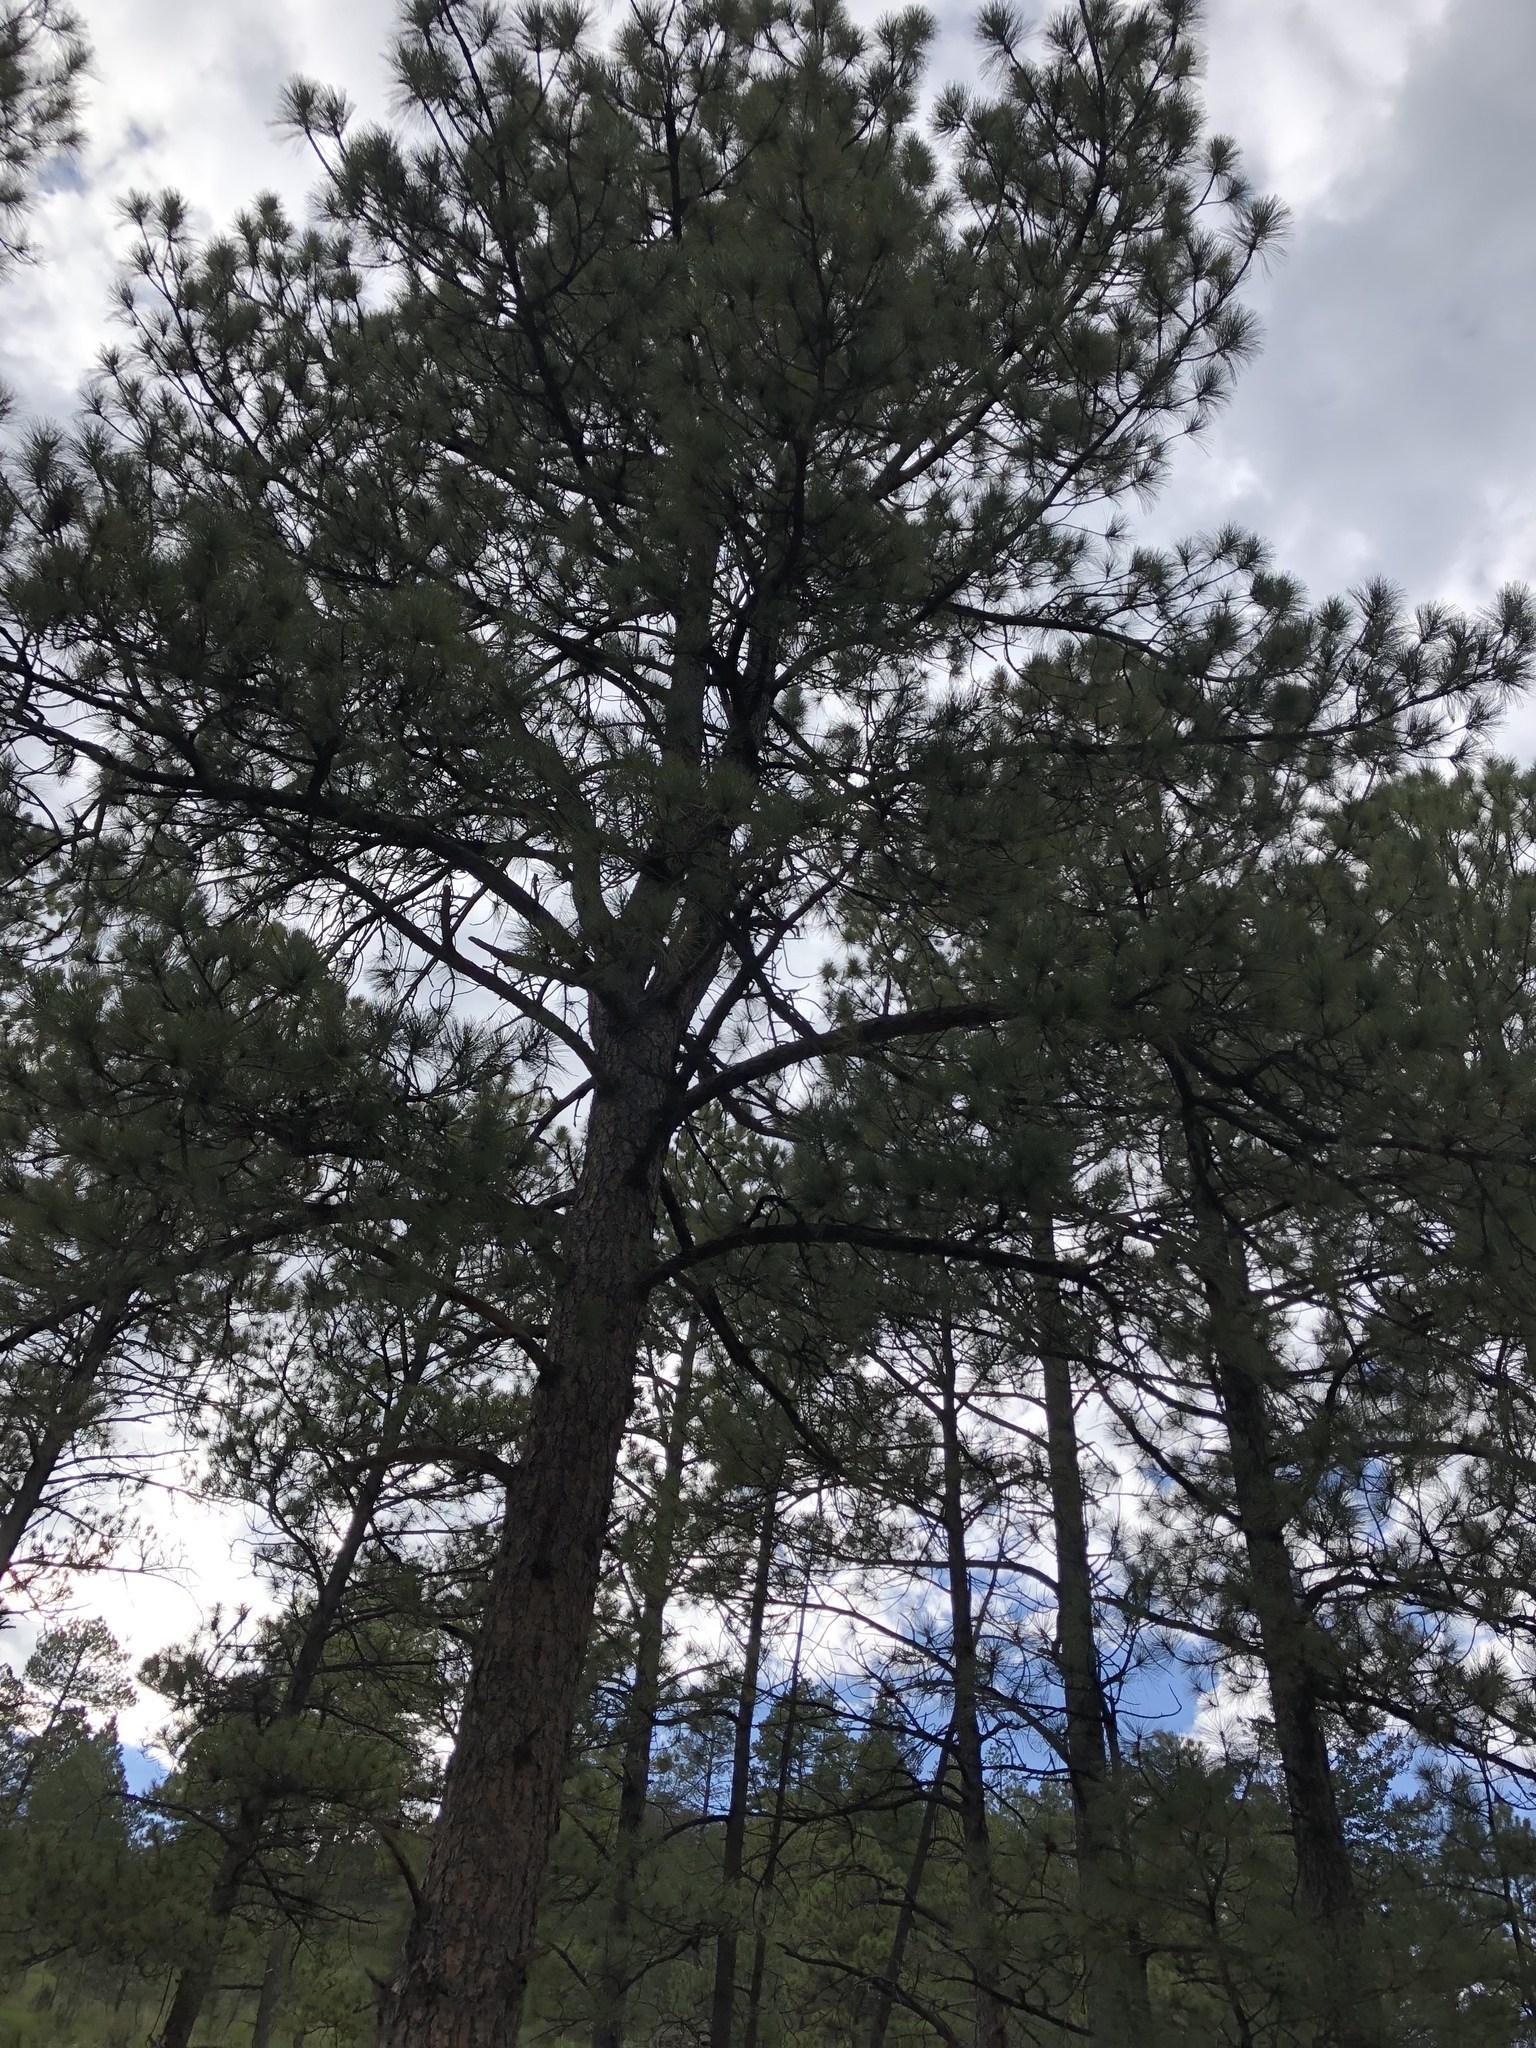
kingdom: Plantae
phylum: Tracheophyta
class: Pinopsida
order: Pinales
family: Pinaceae
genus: Pinus
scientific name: Pinus ponderosa
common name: Western yellow-pine
